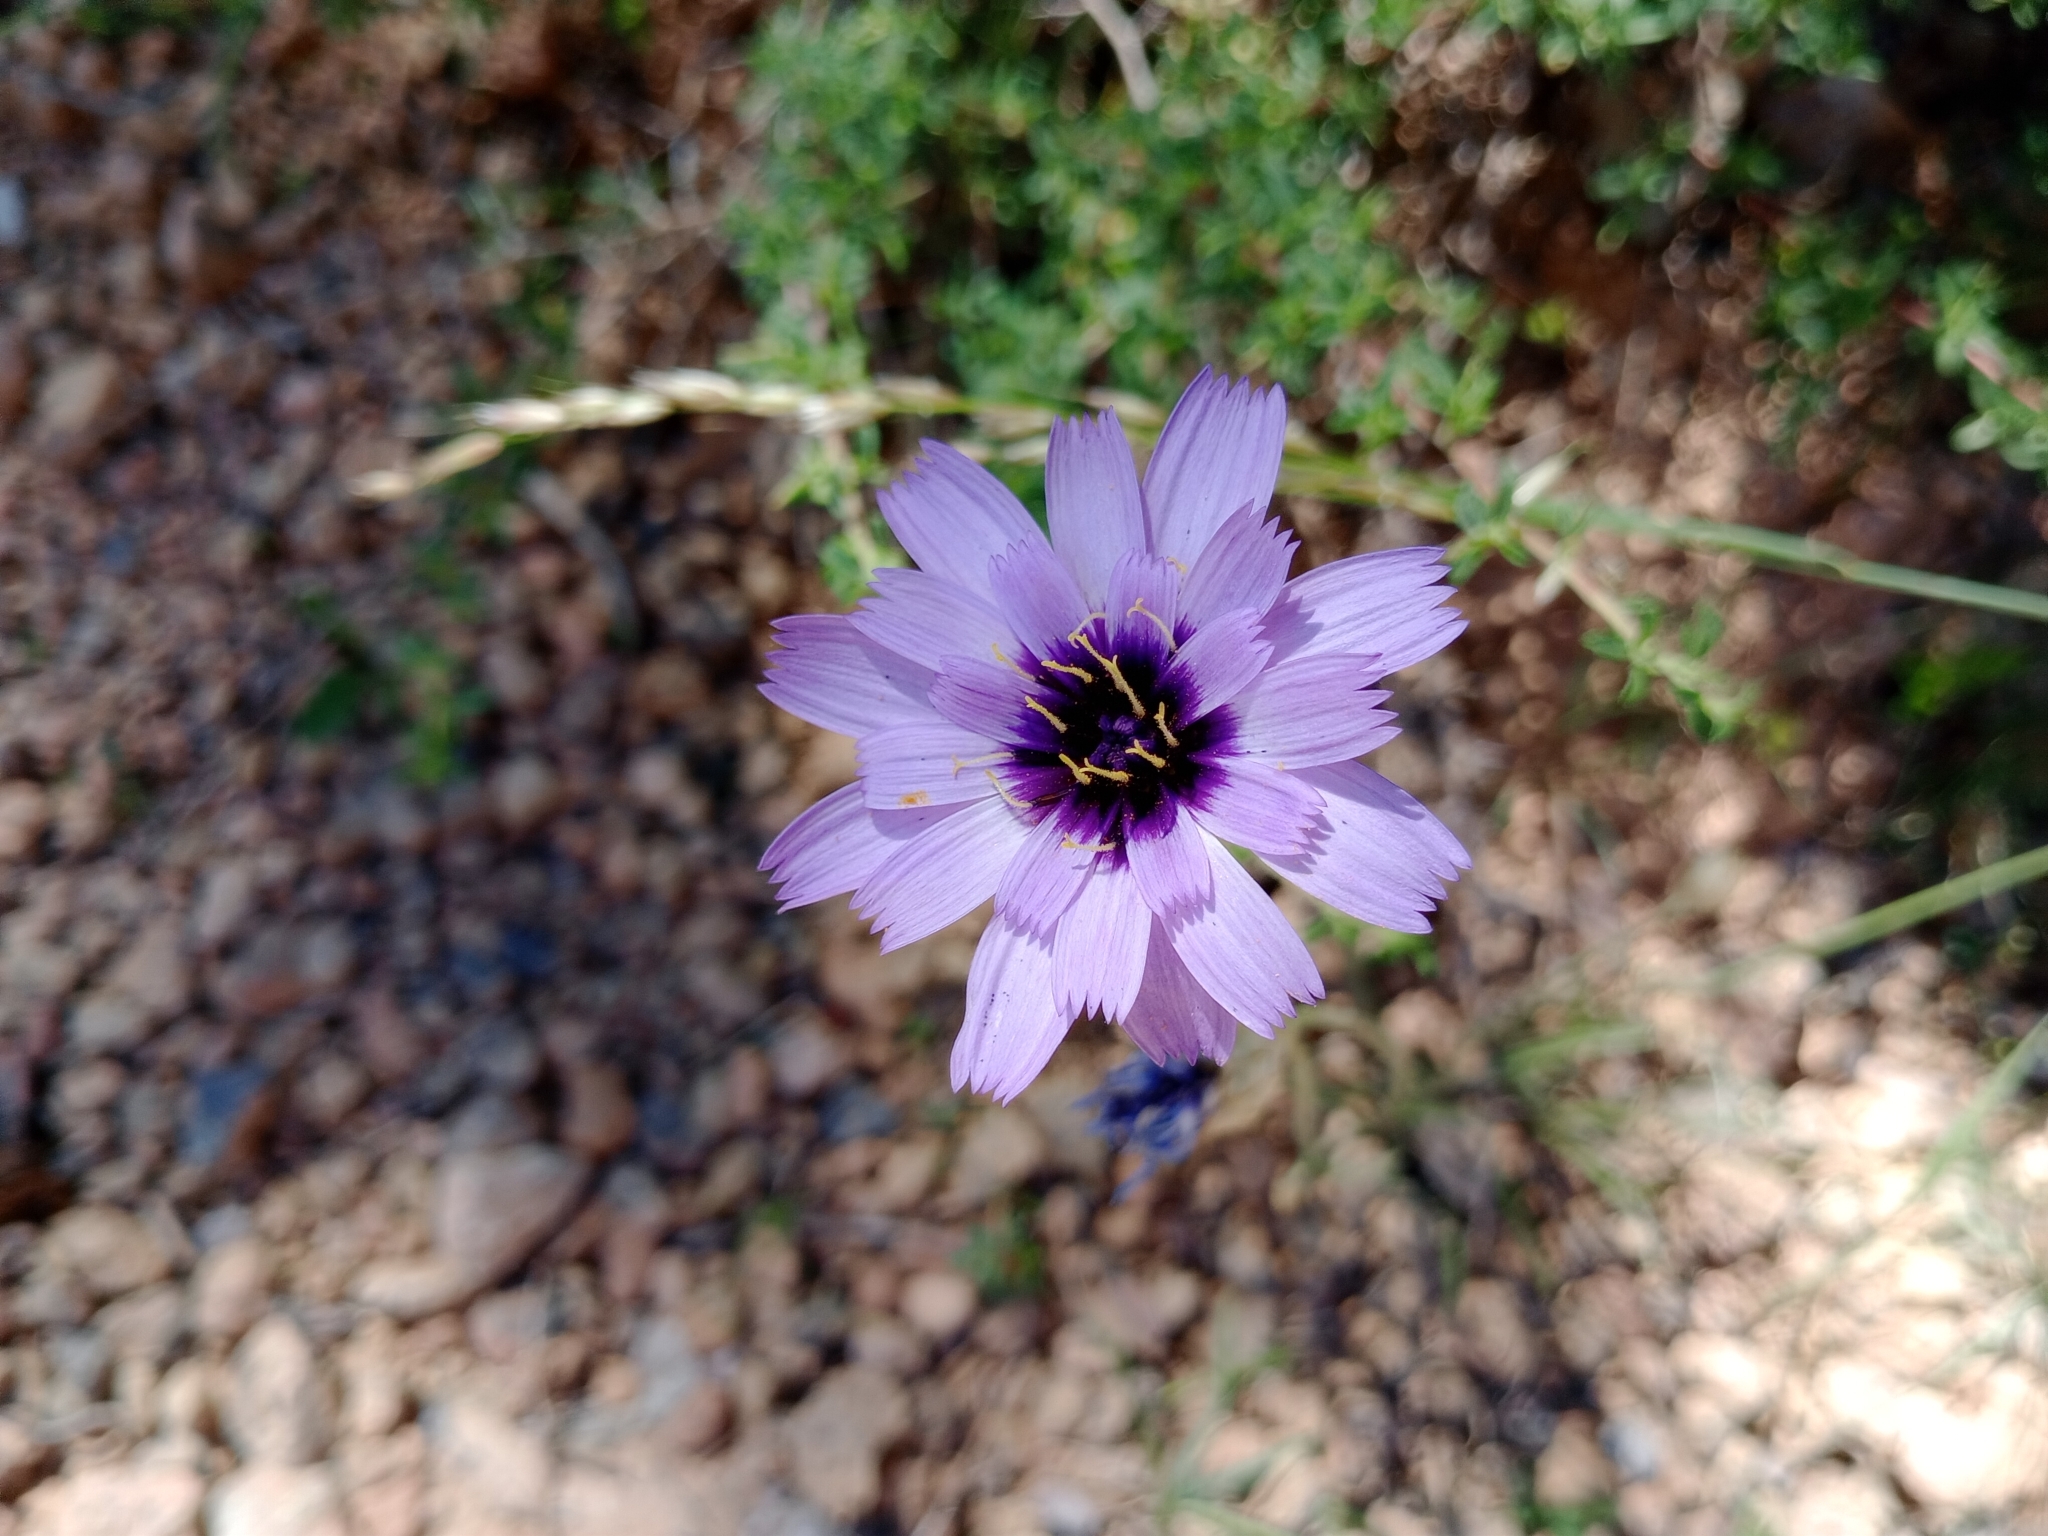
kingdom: Plantae
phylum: Tracheophyta
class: Magnoliopsida
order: Asterales
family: Asteraceae
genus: Catananche
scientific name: Catananche caerulea
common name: Blue cupidone
